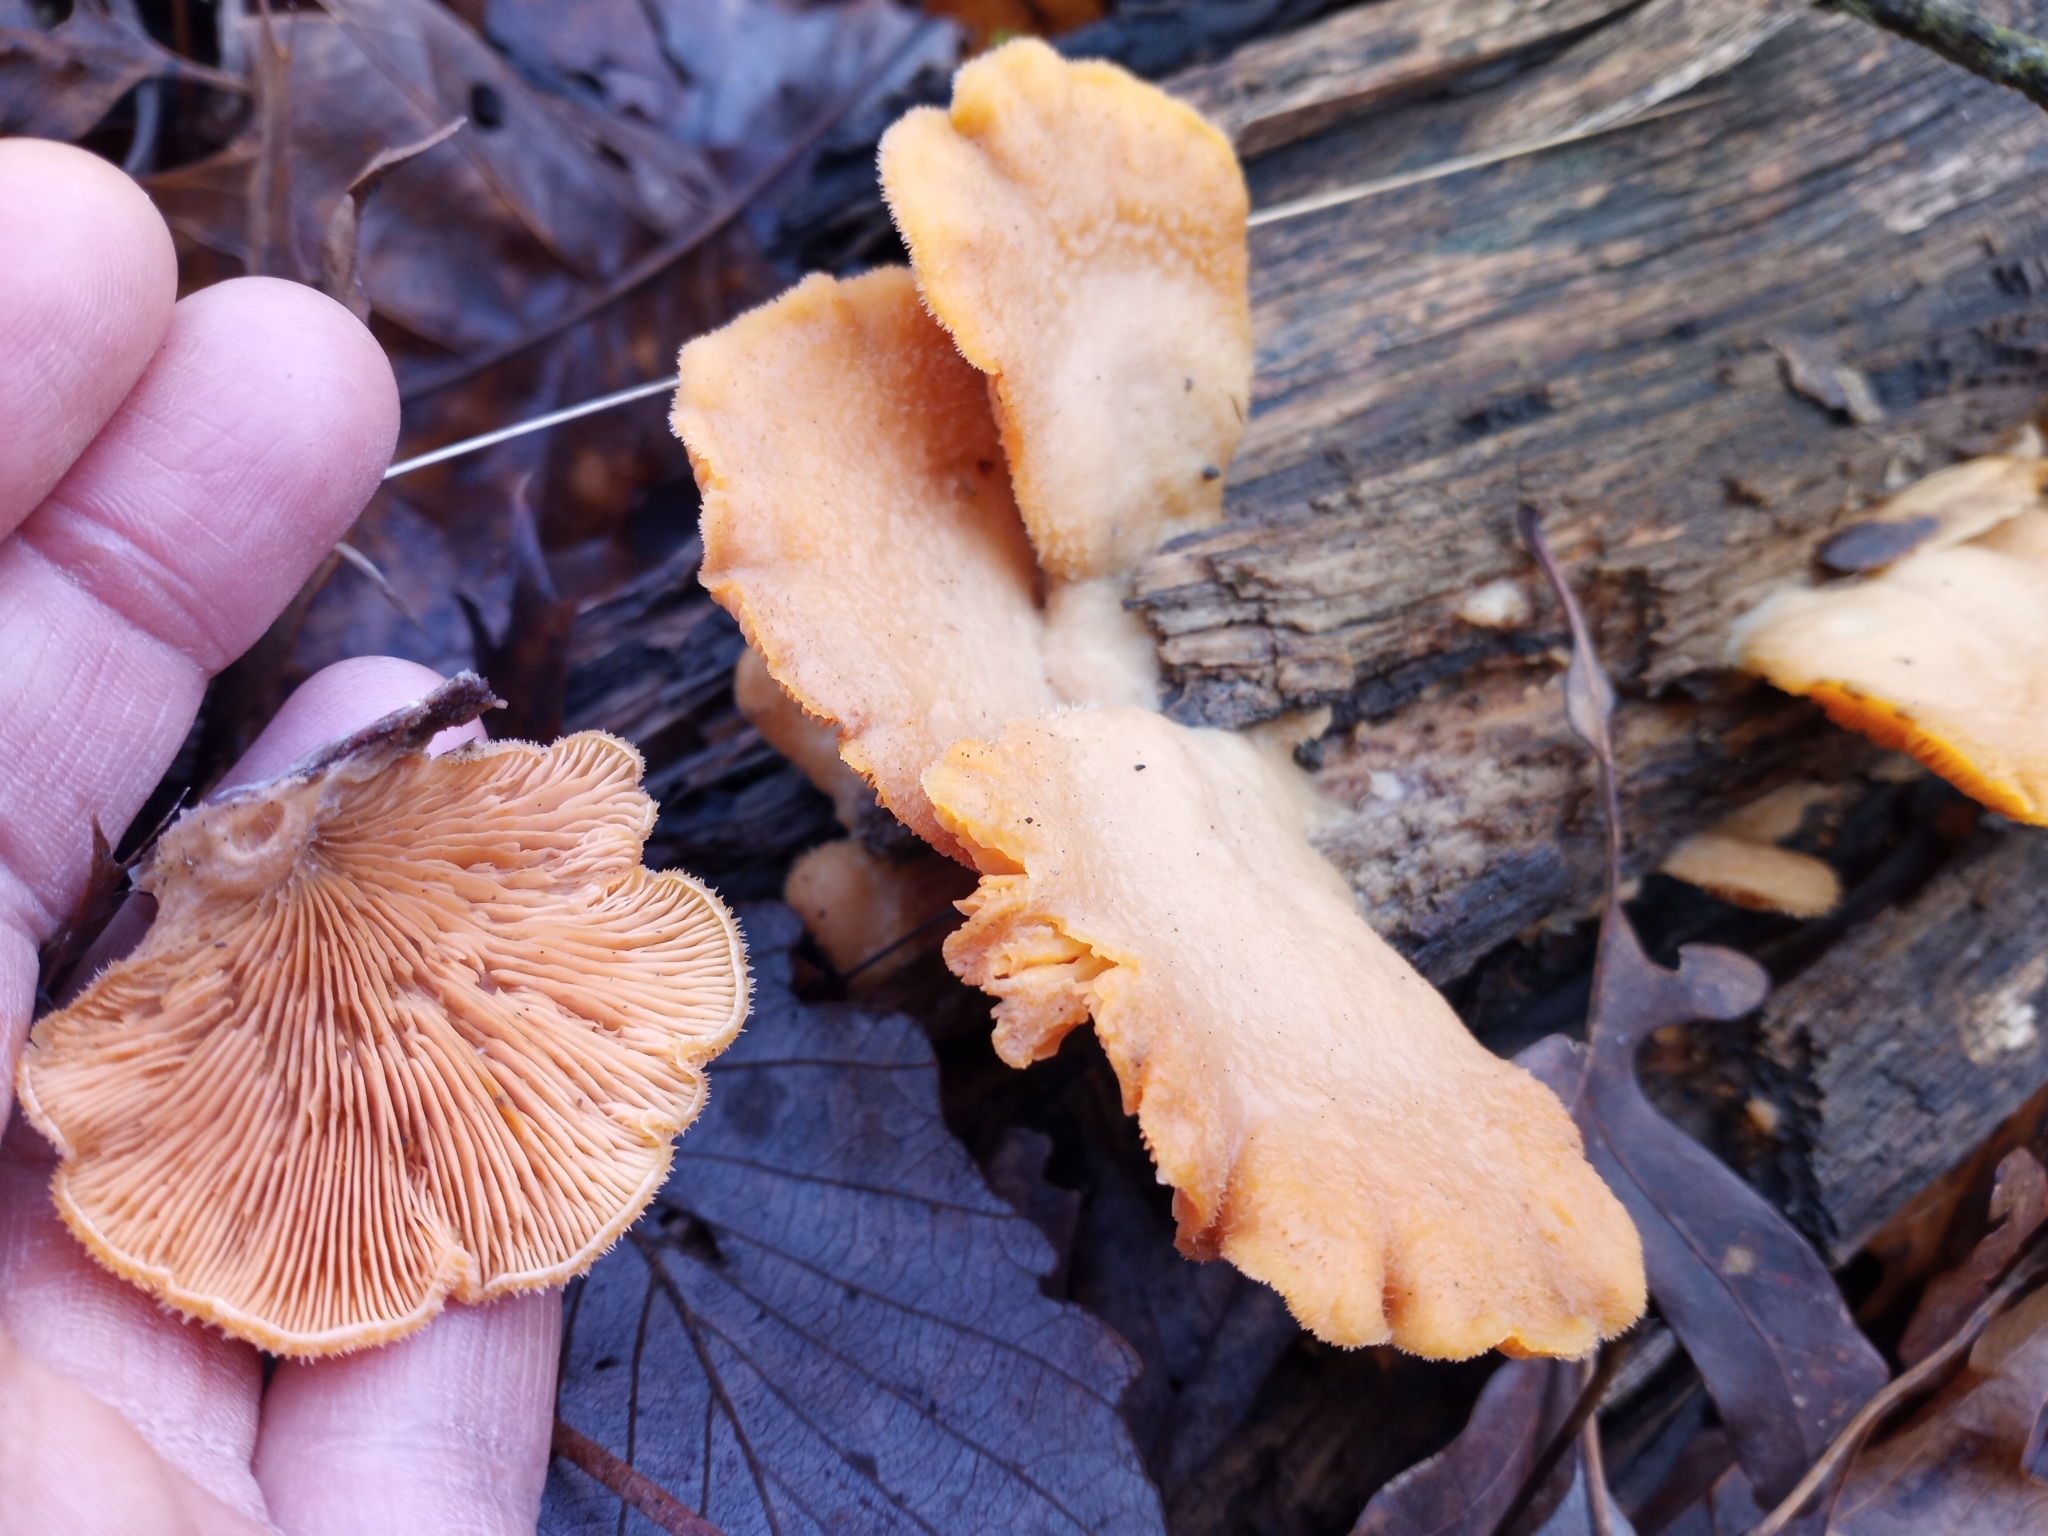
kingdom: Fungi
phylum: Basidiomycota
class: Agaricomycetes
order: Agaricales
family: Phyllotopsidaceae
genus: Phyllotopsis
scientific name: Phyllotopsis nidulans
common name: Orange mock oyster
